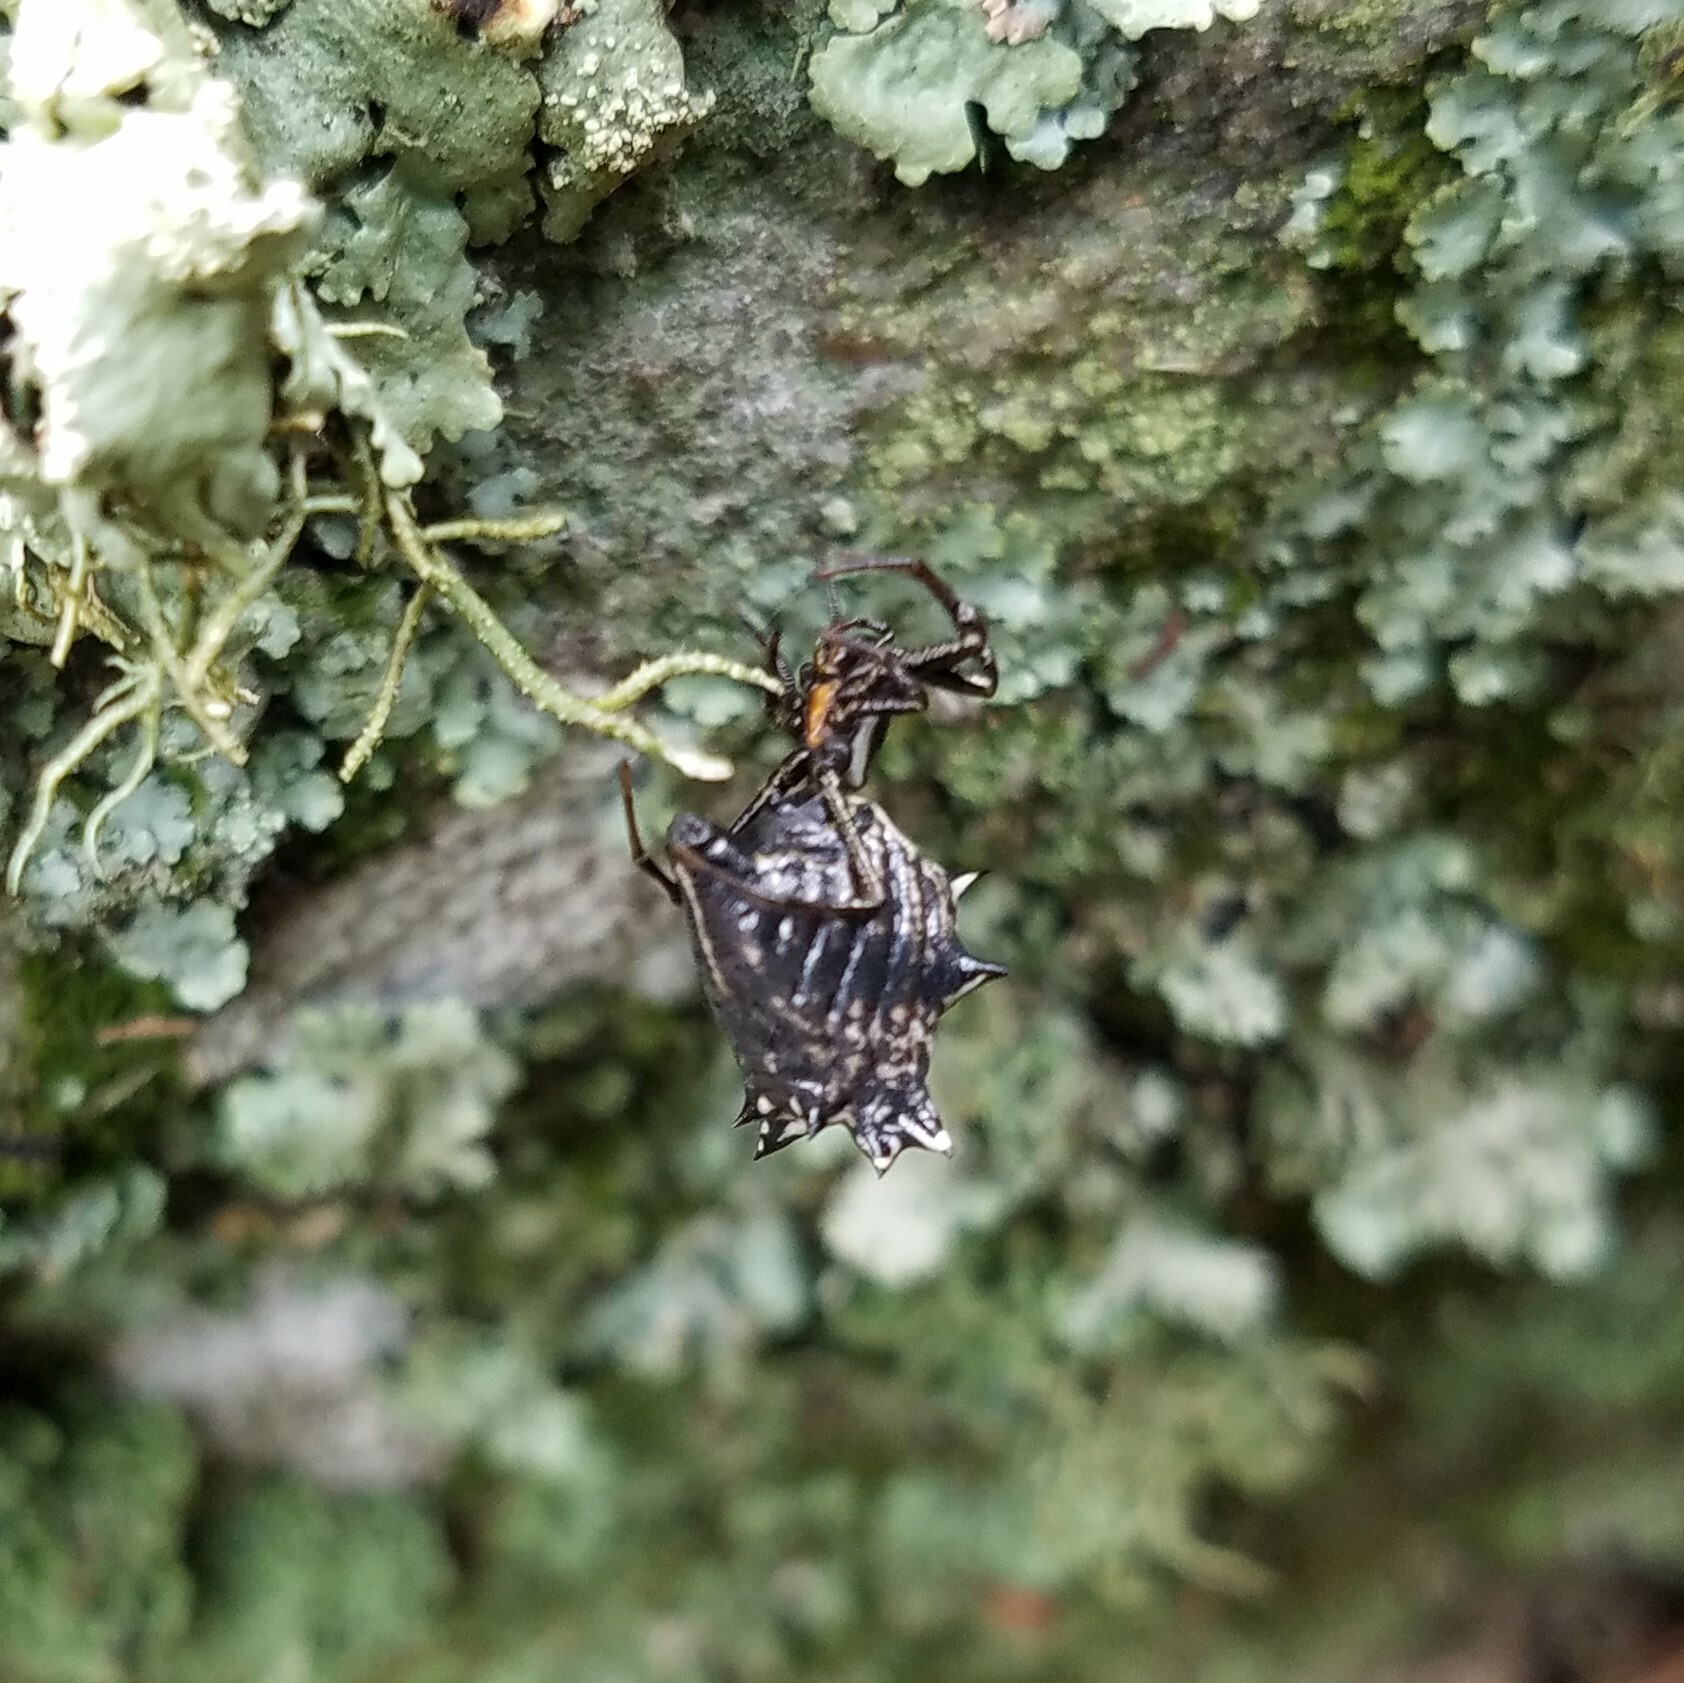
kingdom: Animalia
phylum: Arthropoda
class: Arachnida
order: Araneae
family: Araneidae
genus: Micrathena
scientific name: Micrathena gracilis
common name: Orb weavers
